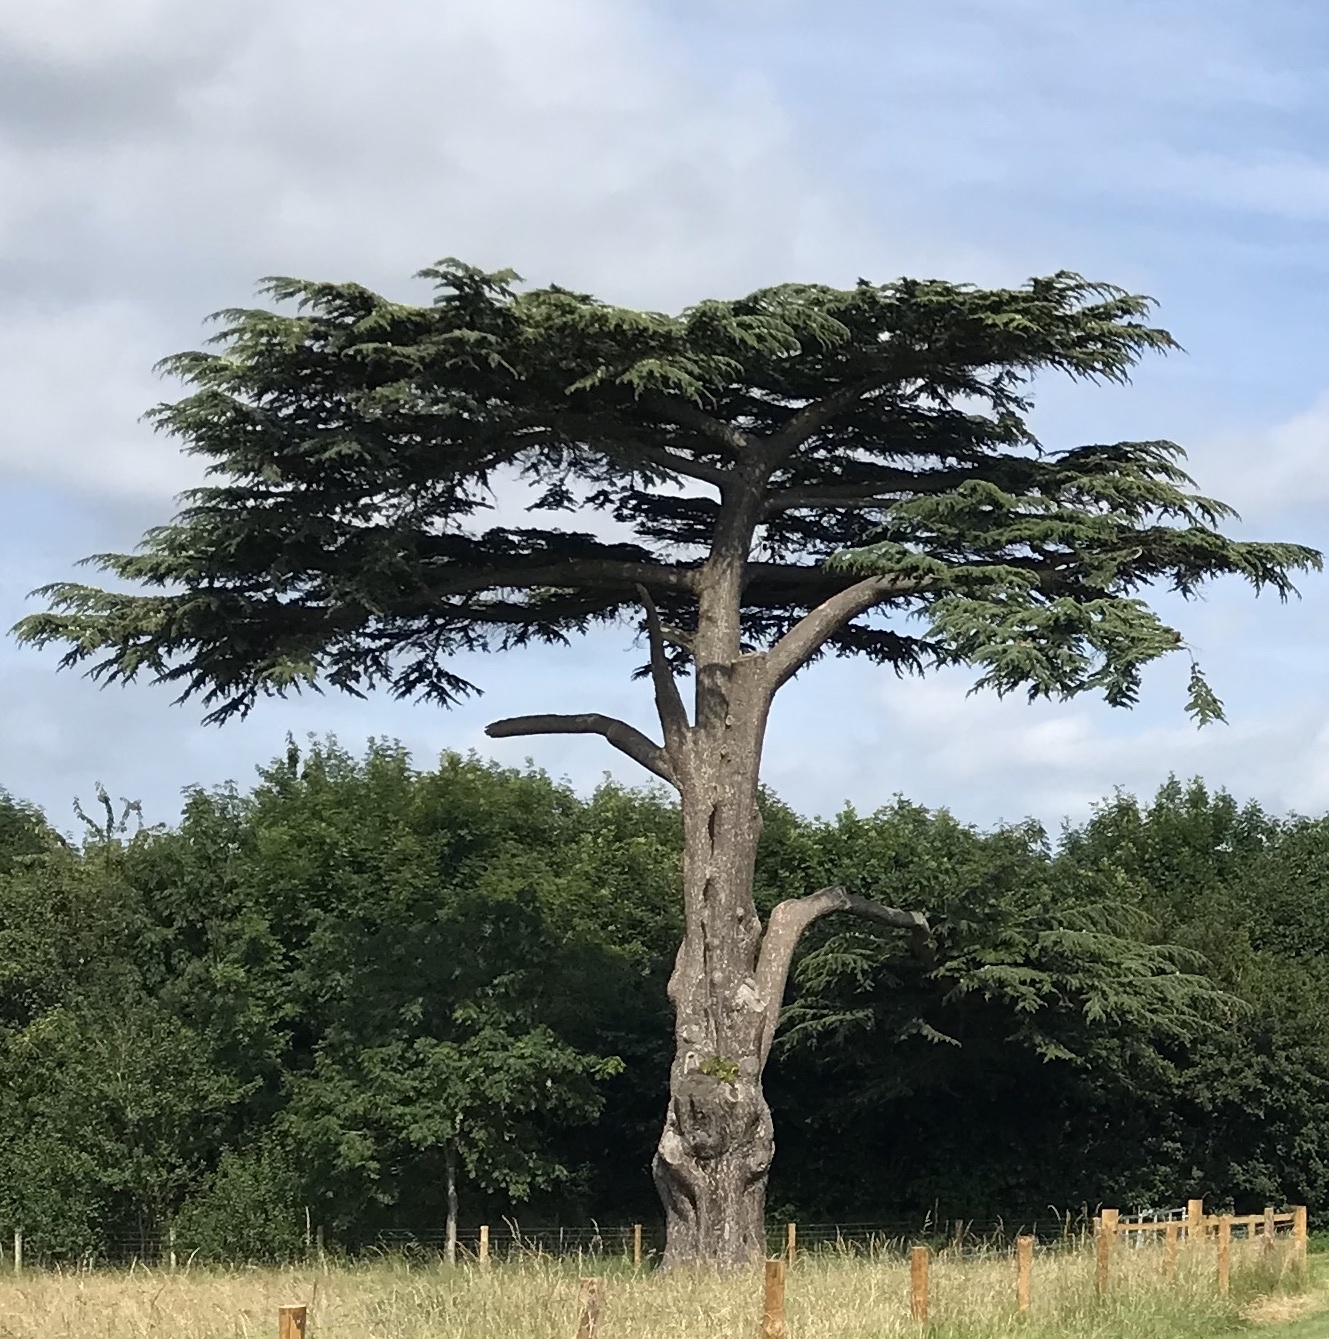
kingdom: Plantae
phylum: Tracheophyta
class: Pinopsida
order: Pinales
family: Pinaceae
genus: Cedrus
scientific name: Cedrus libani
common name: Cedar-of-lebanon
